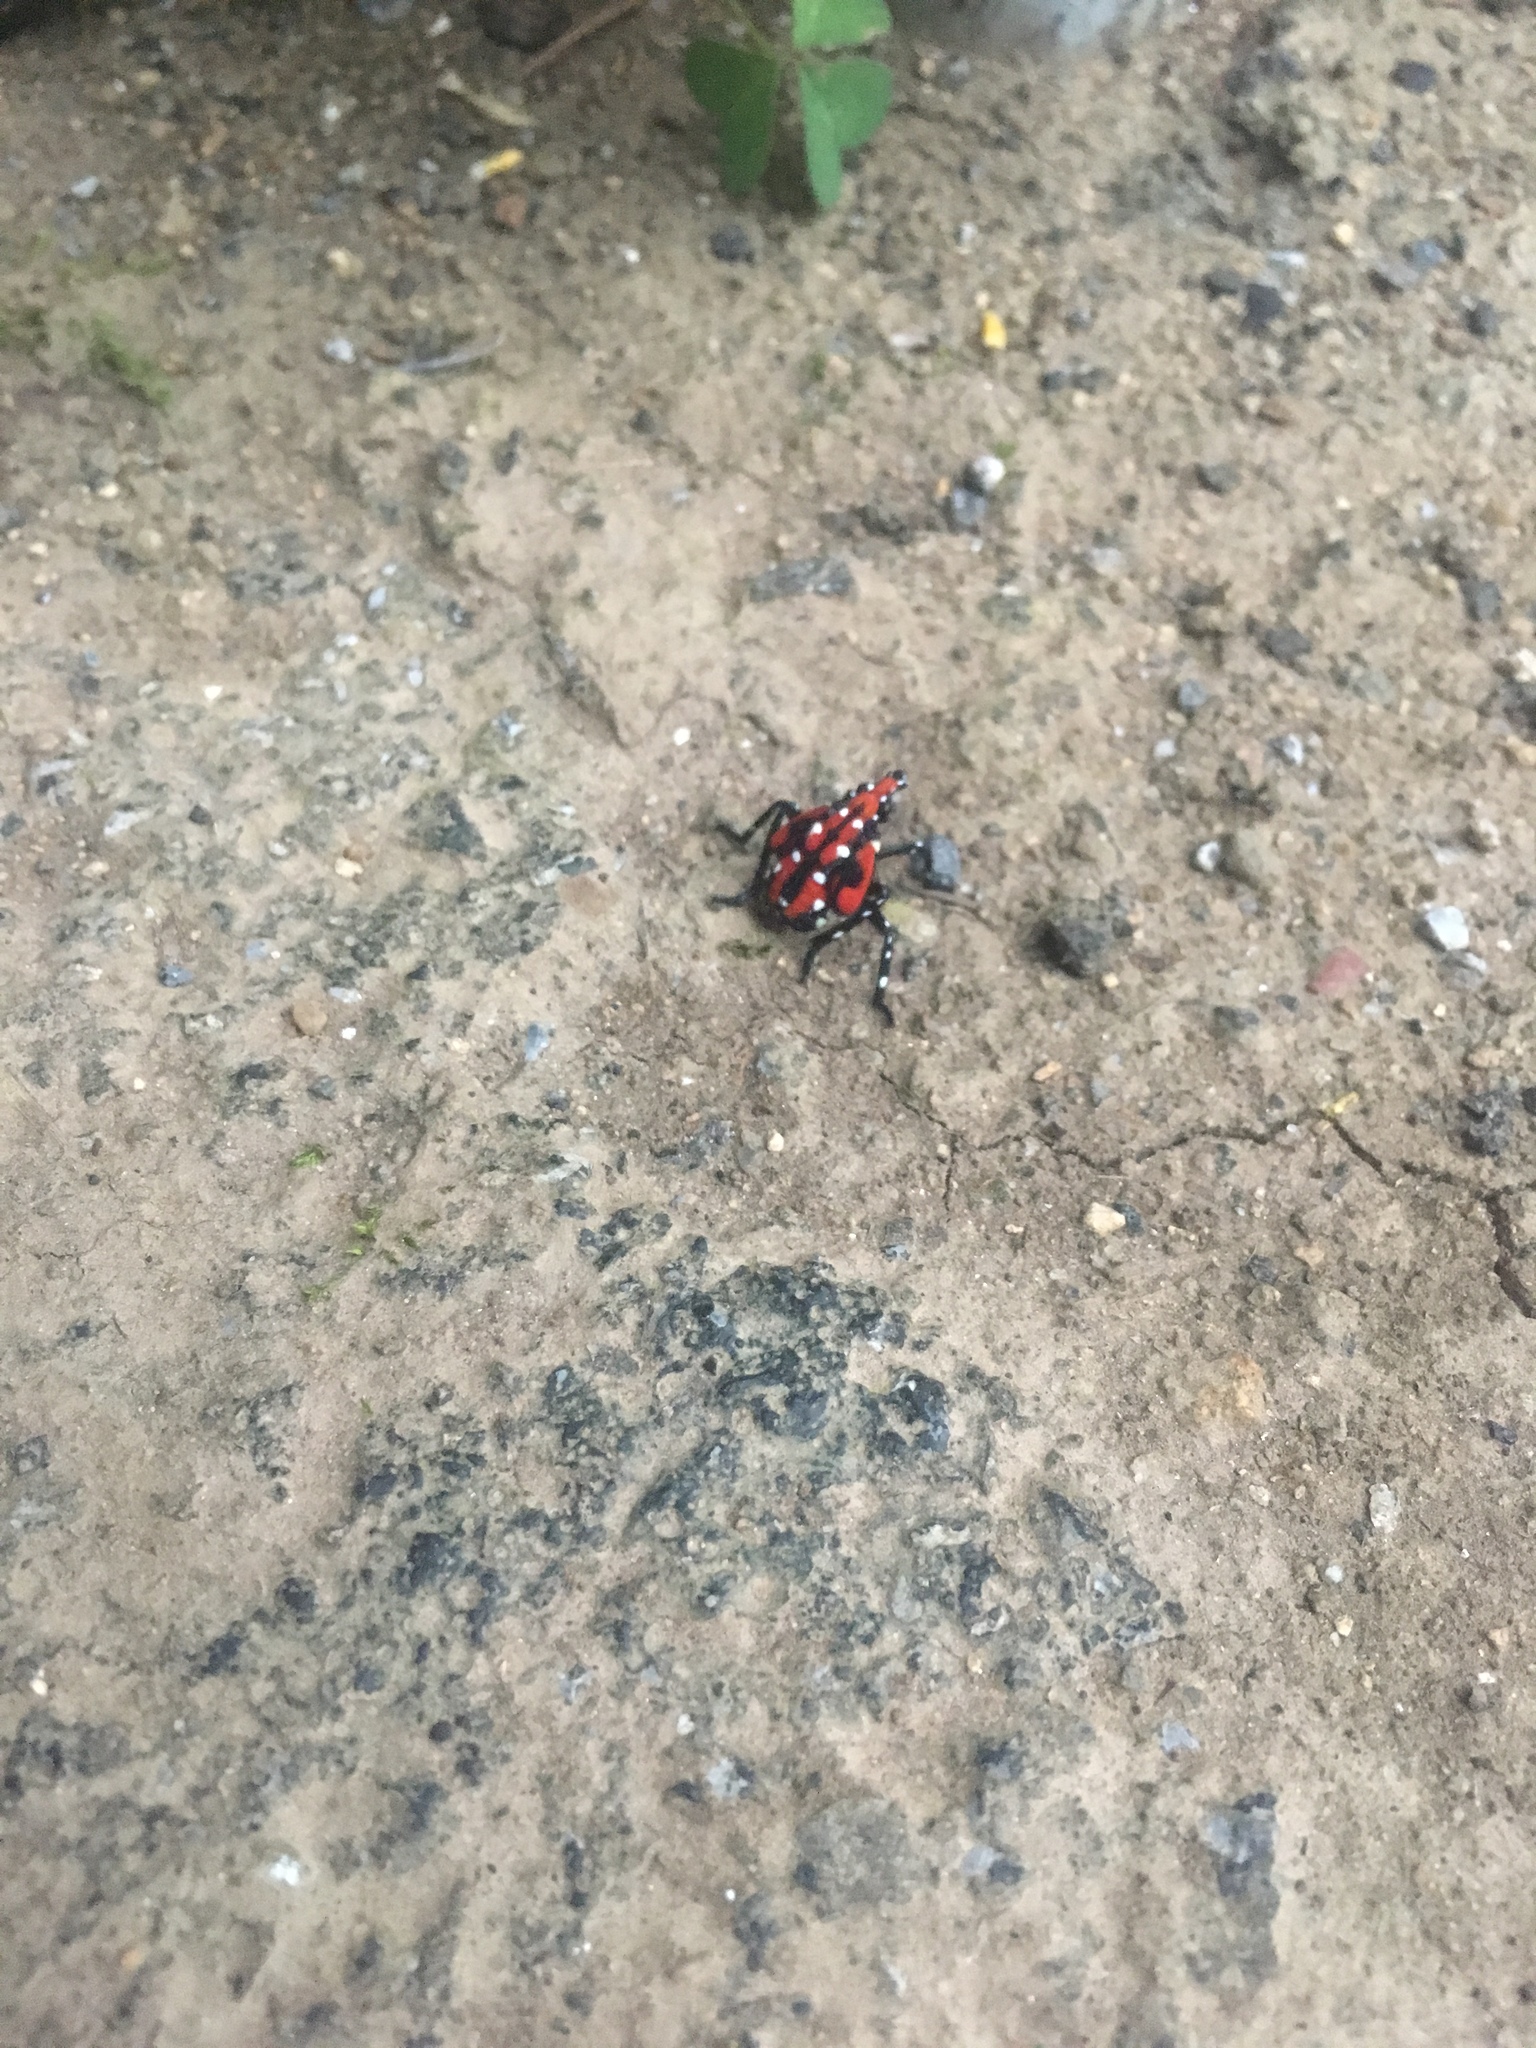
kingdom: Animalia
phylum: Arthropoda
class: Insecta
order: Hemiptera
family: Fulgoridae
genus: Lycorma
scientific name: Lycorma delicatula
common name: Spotted lanternfly
